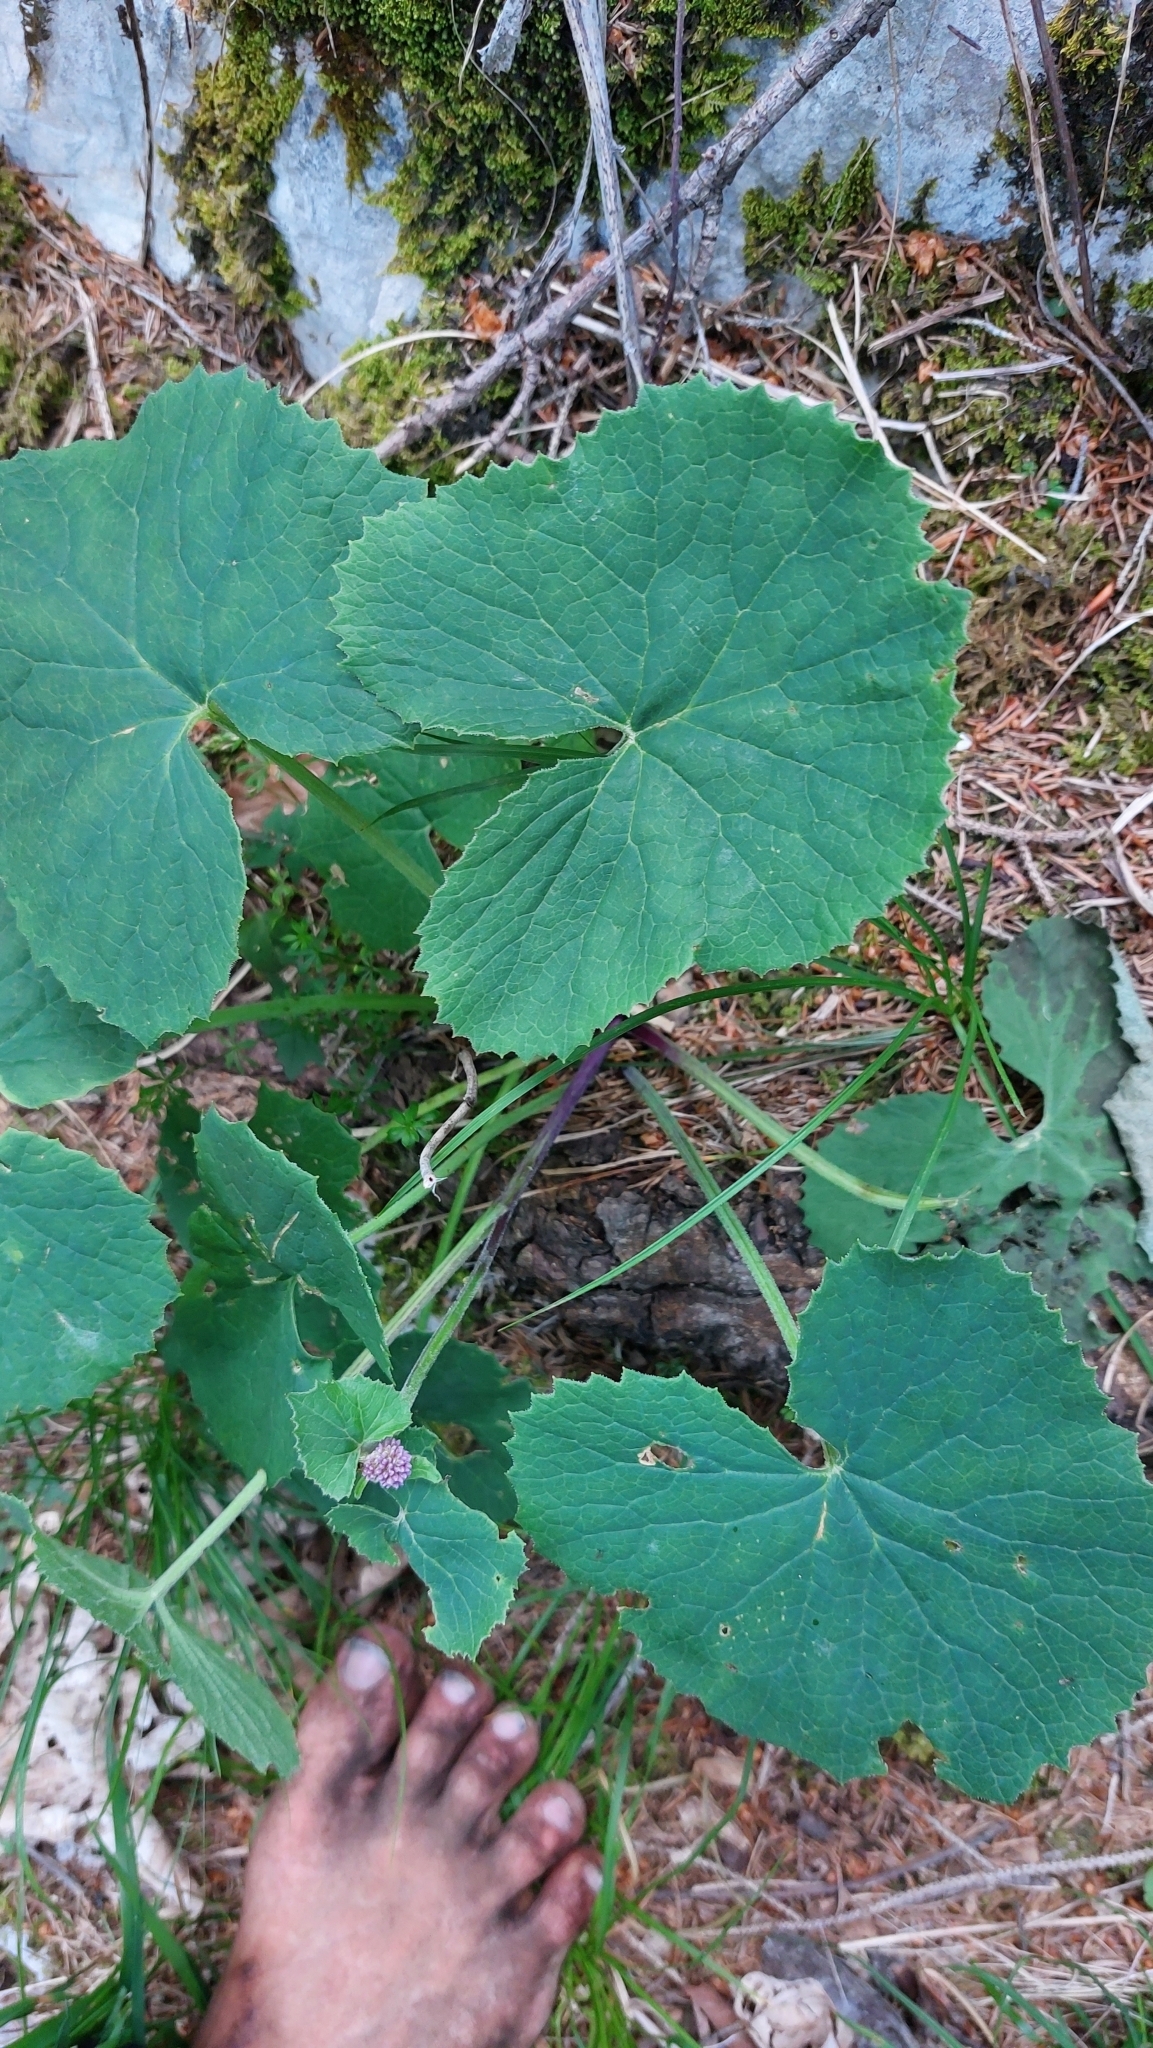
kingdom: Plantae
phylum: Tracheophyta
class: Magnoliopsida
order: Asterales
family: Asteraceae
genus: Adenostyles
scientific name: Adenostyles alpina
